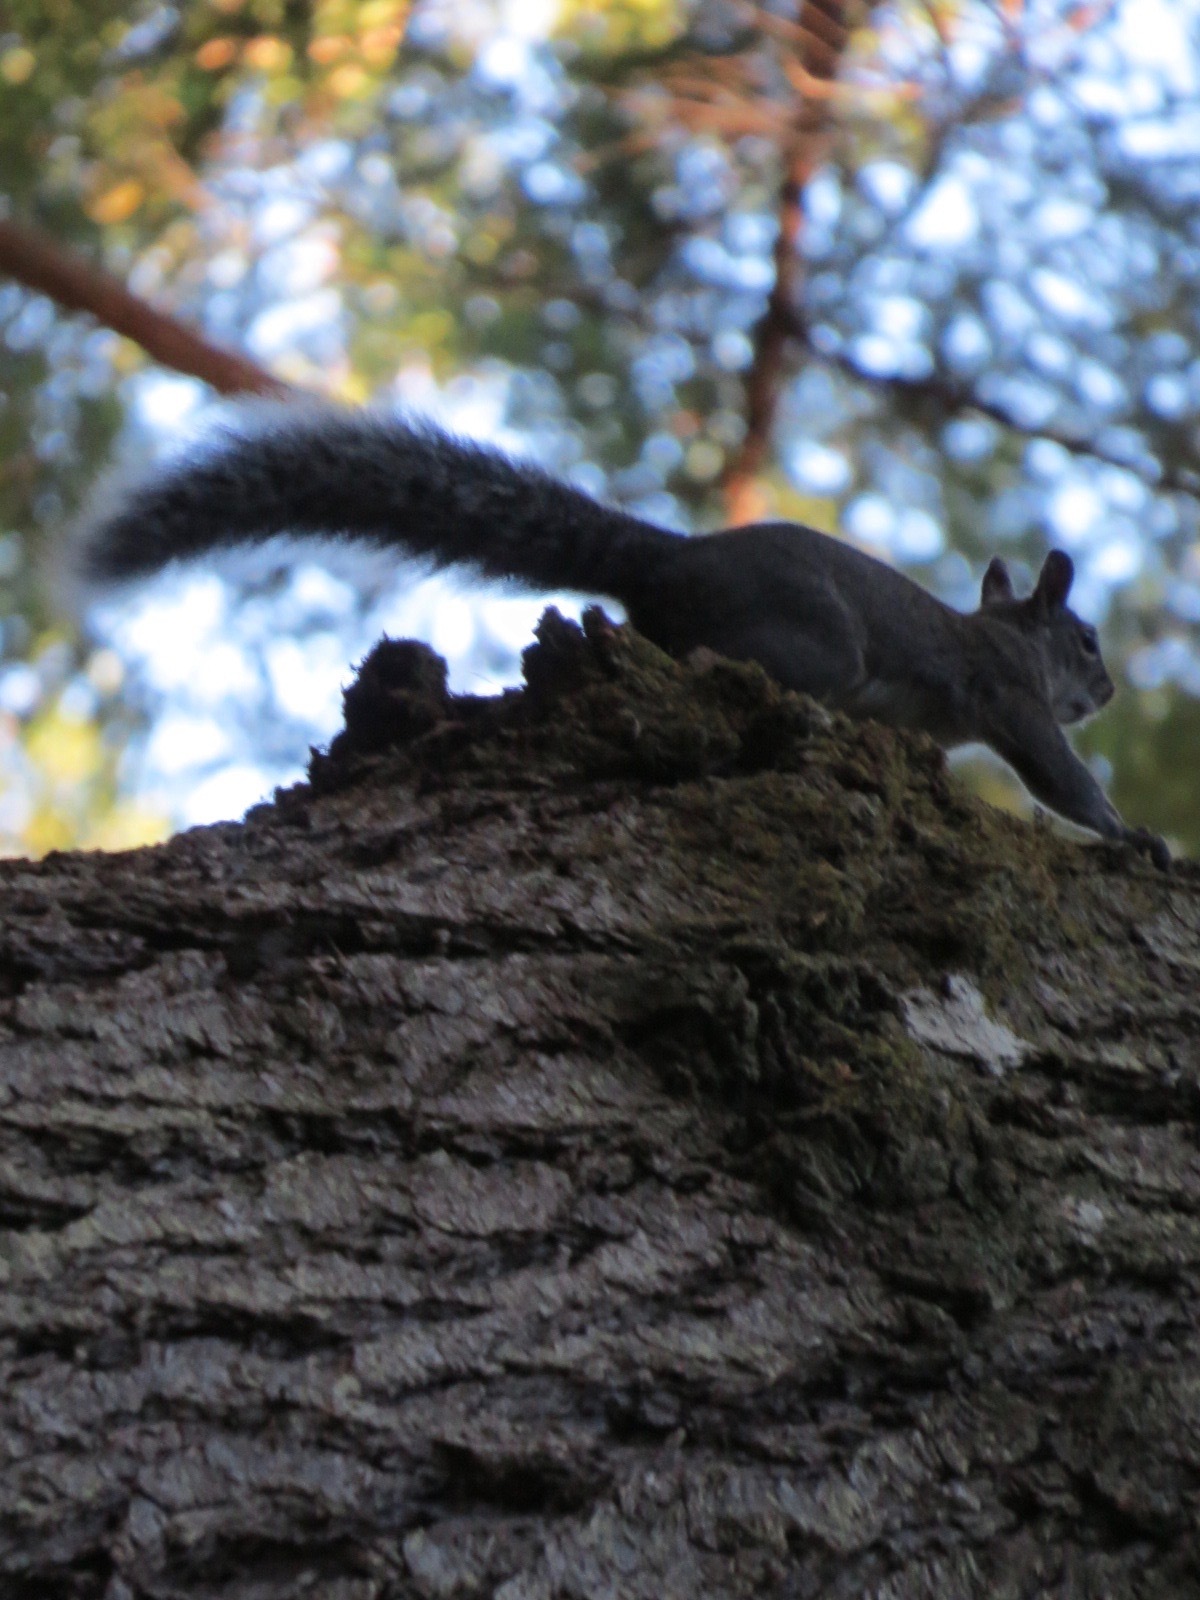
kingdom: Animalia
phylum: Chordata
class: Mammalia
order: Rodentia
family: Sciuridae
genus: Sciurus
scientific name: Sciurus griseus
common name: Western gray squirrel
